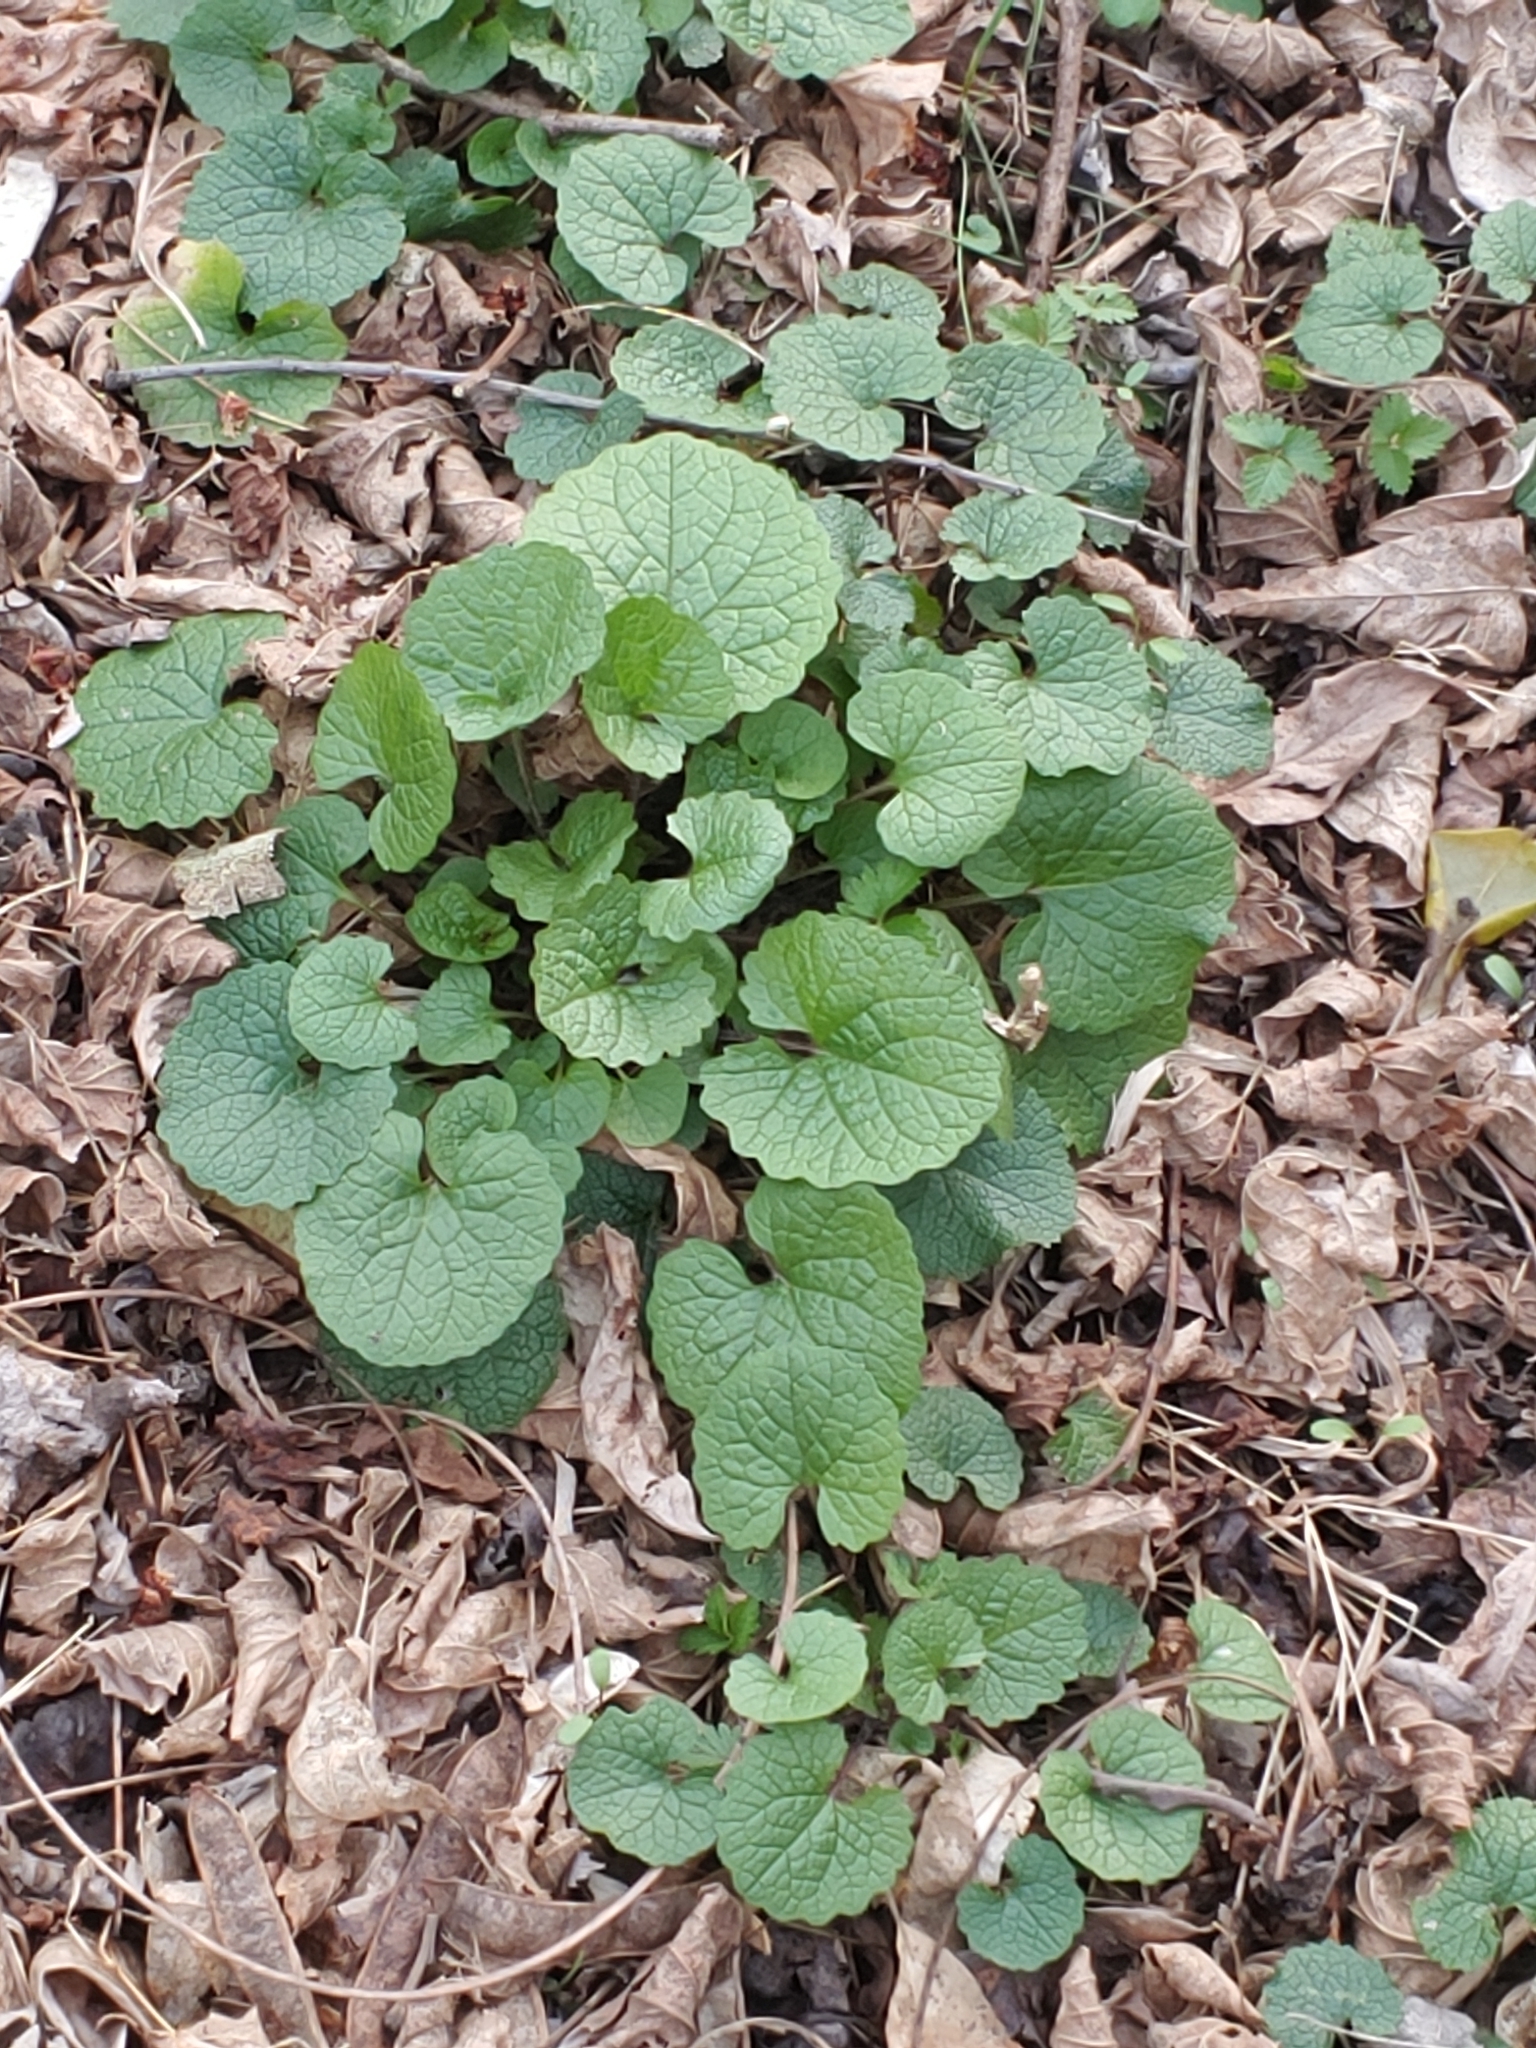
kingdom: Plantae
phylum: Tracheophyta
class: Magnoliopsida
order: Brassicales
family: Brassicaceae
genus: Alliaria
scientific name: Alliaria petiolata
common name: Garlic mustard
